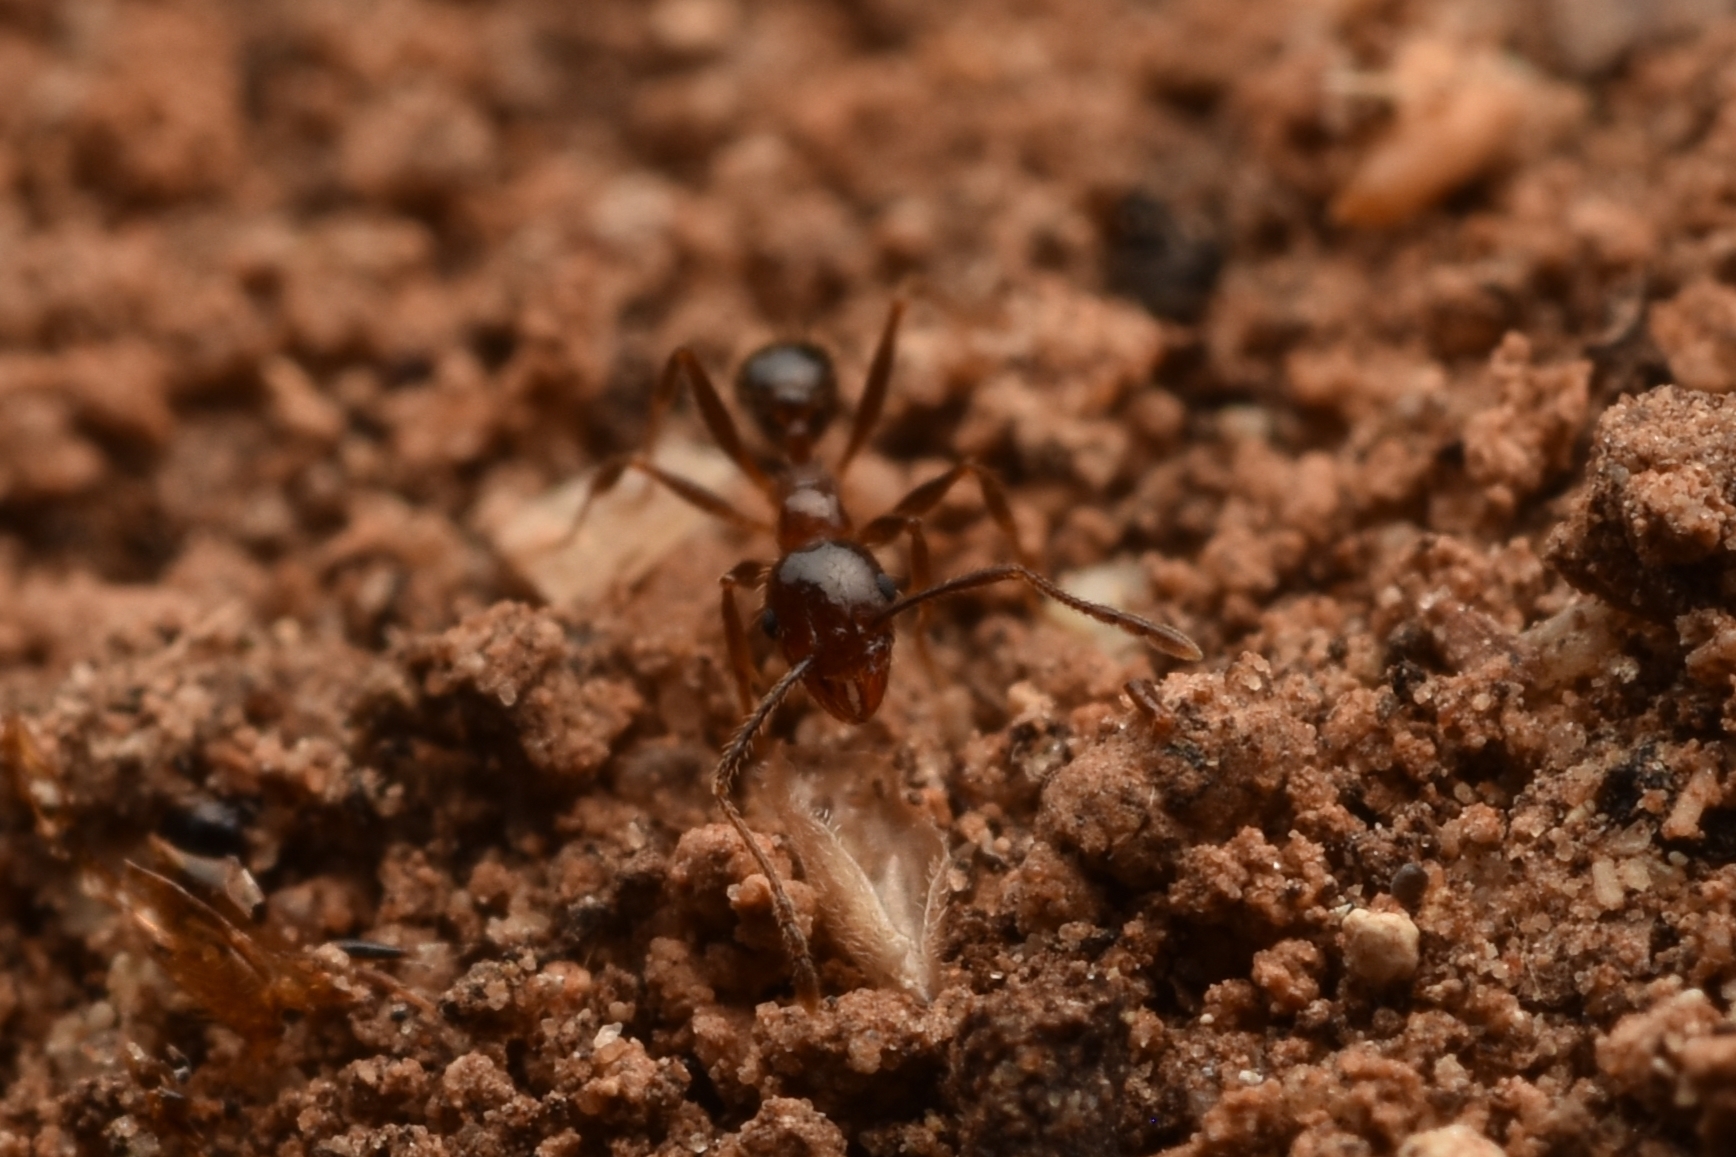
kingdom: Animalia
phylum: Arthropoda
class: Insecta
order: Hymenoptera
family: Formicidae
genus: Pheidole
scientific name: Pheidole dentata
